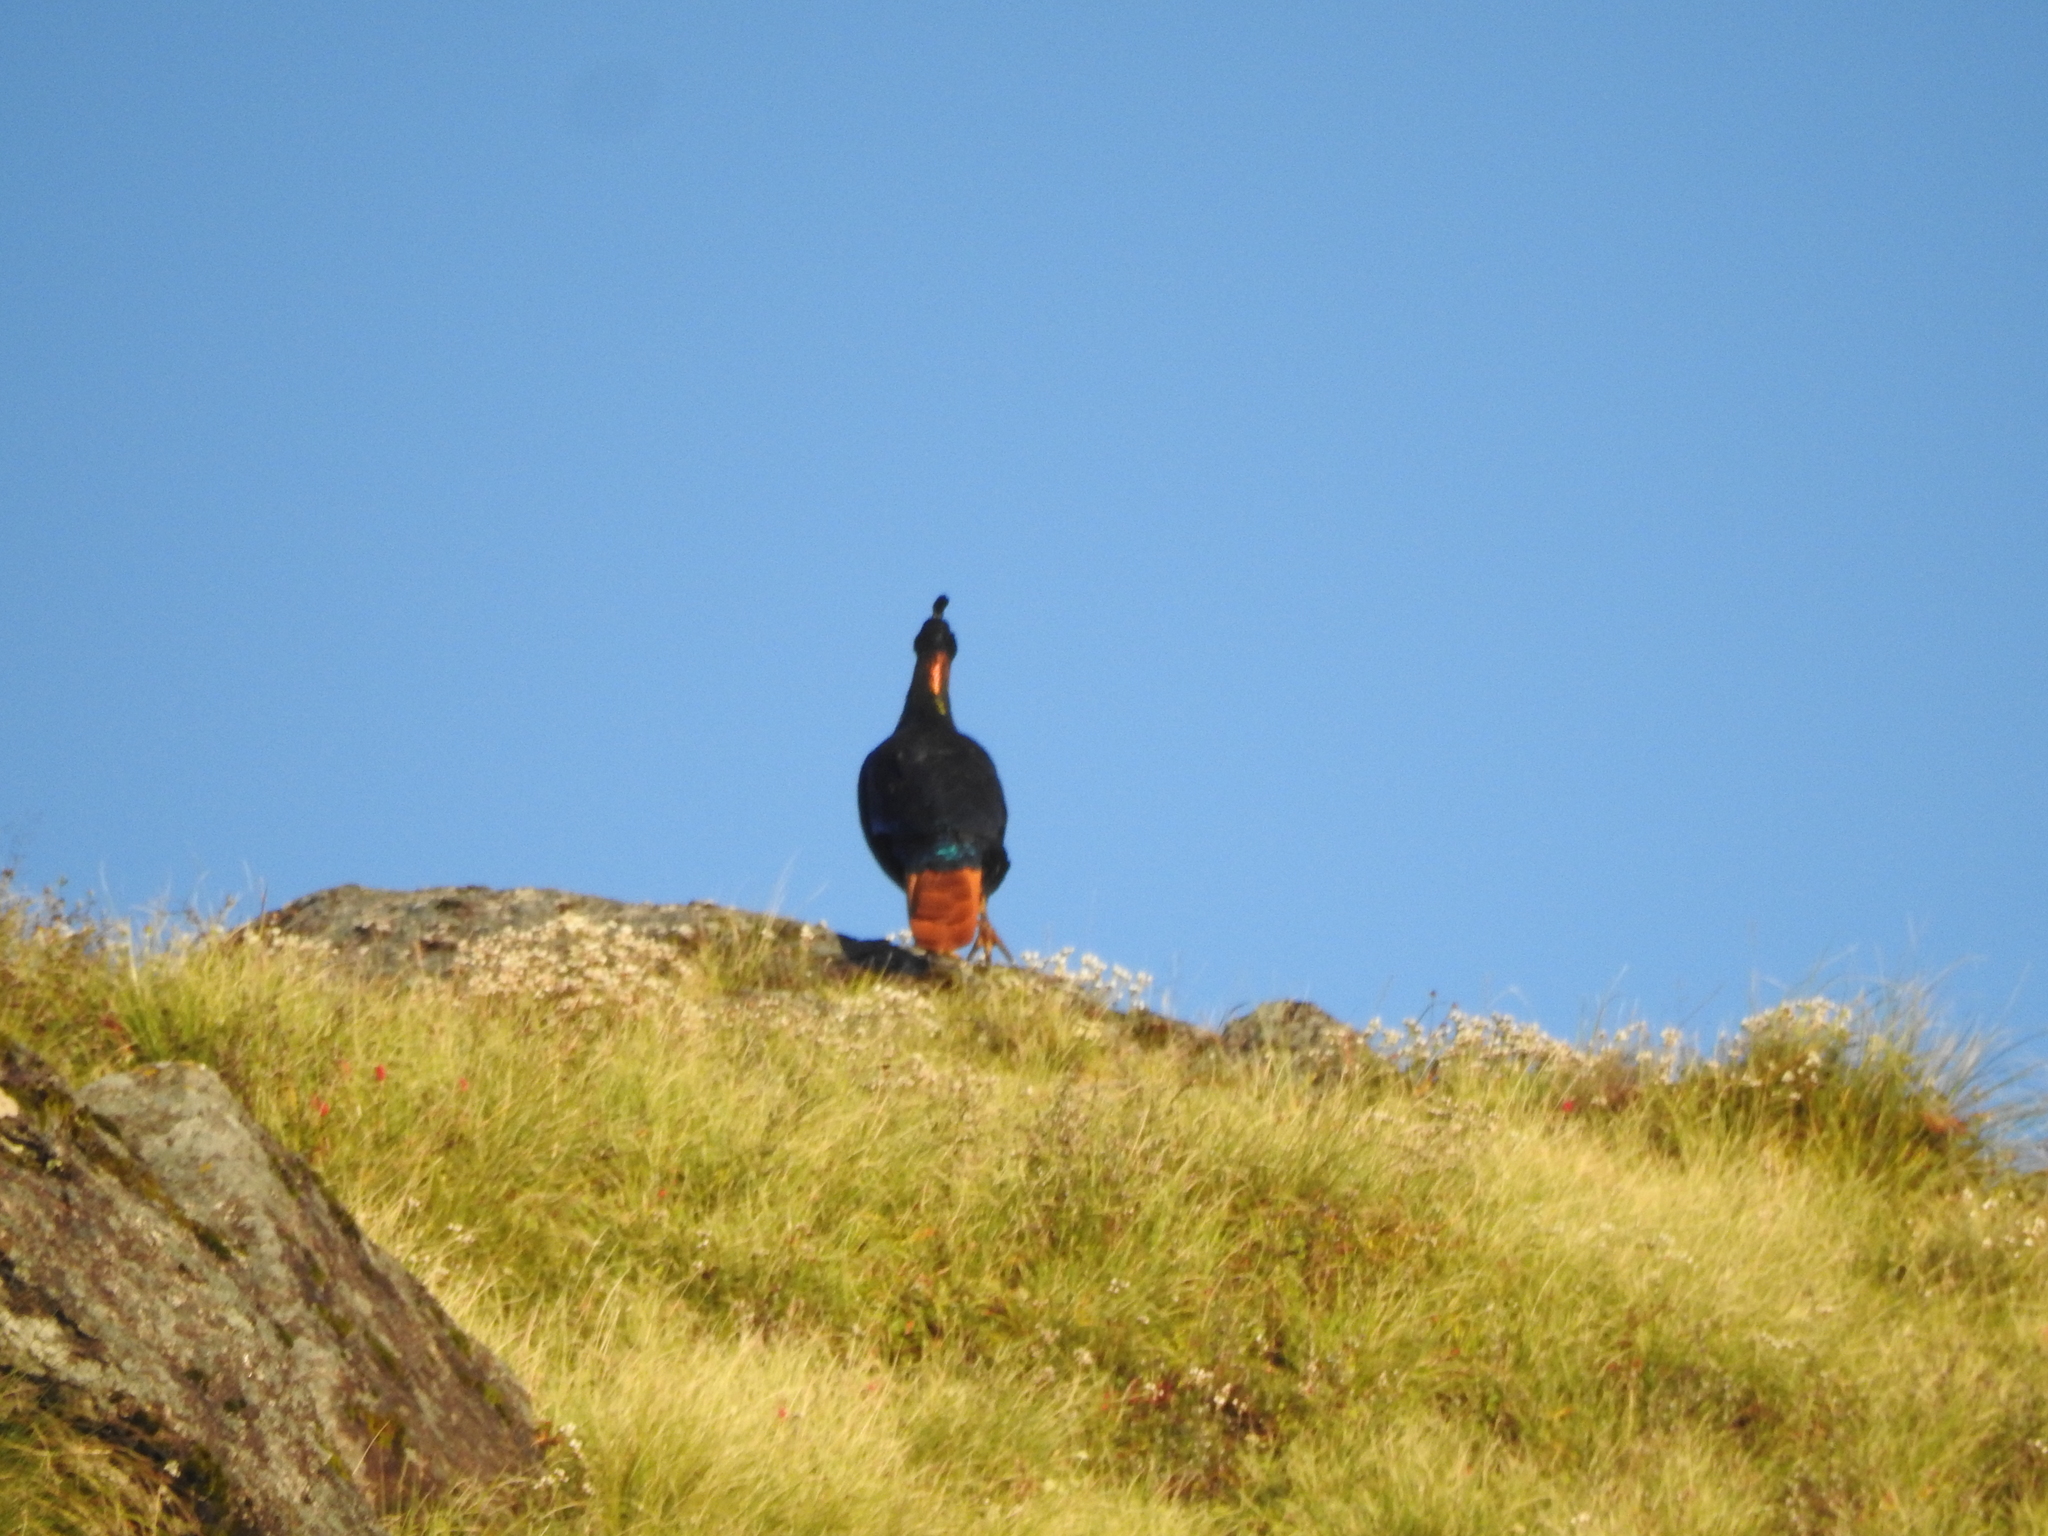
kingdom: Animalia
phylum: Chordata
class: Aves
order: Galliformes
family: Phasianidae
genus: Lophophorus
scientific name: Lophophorus impejanus
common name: Himalayan monal
